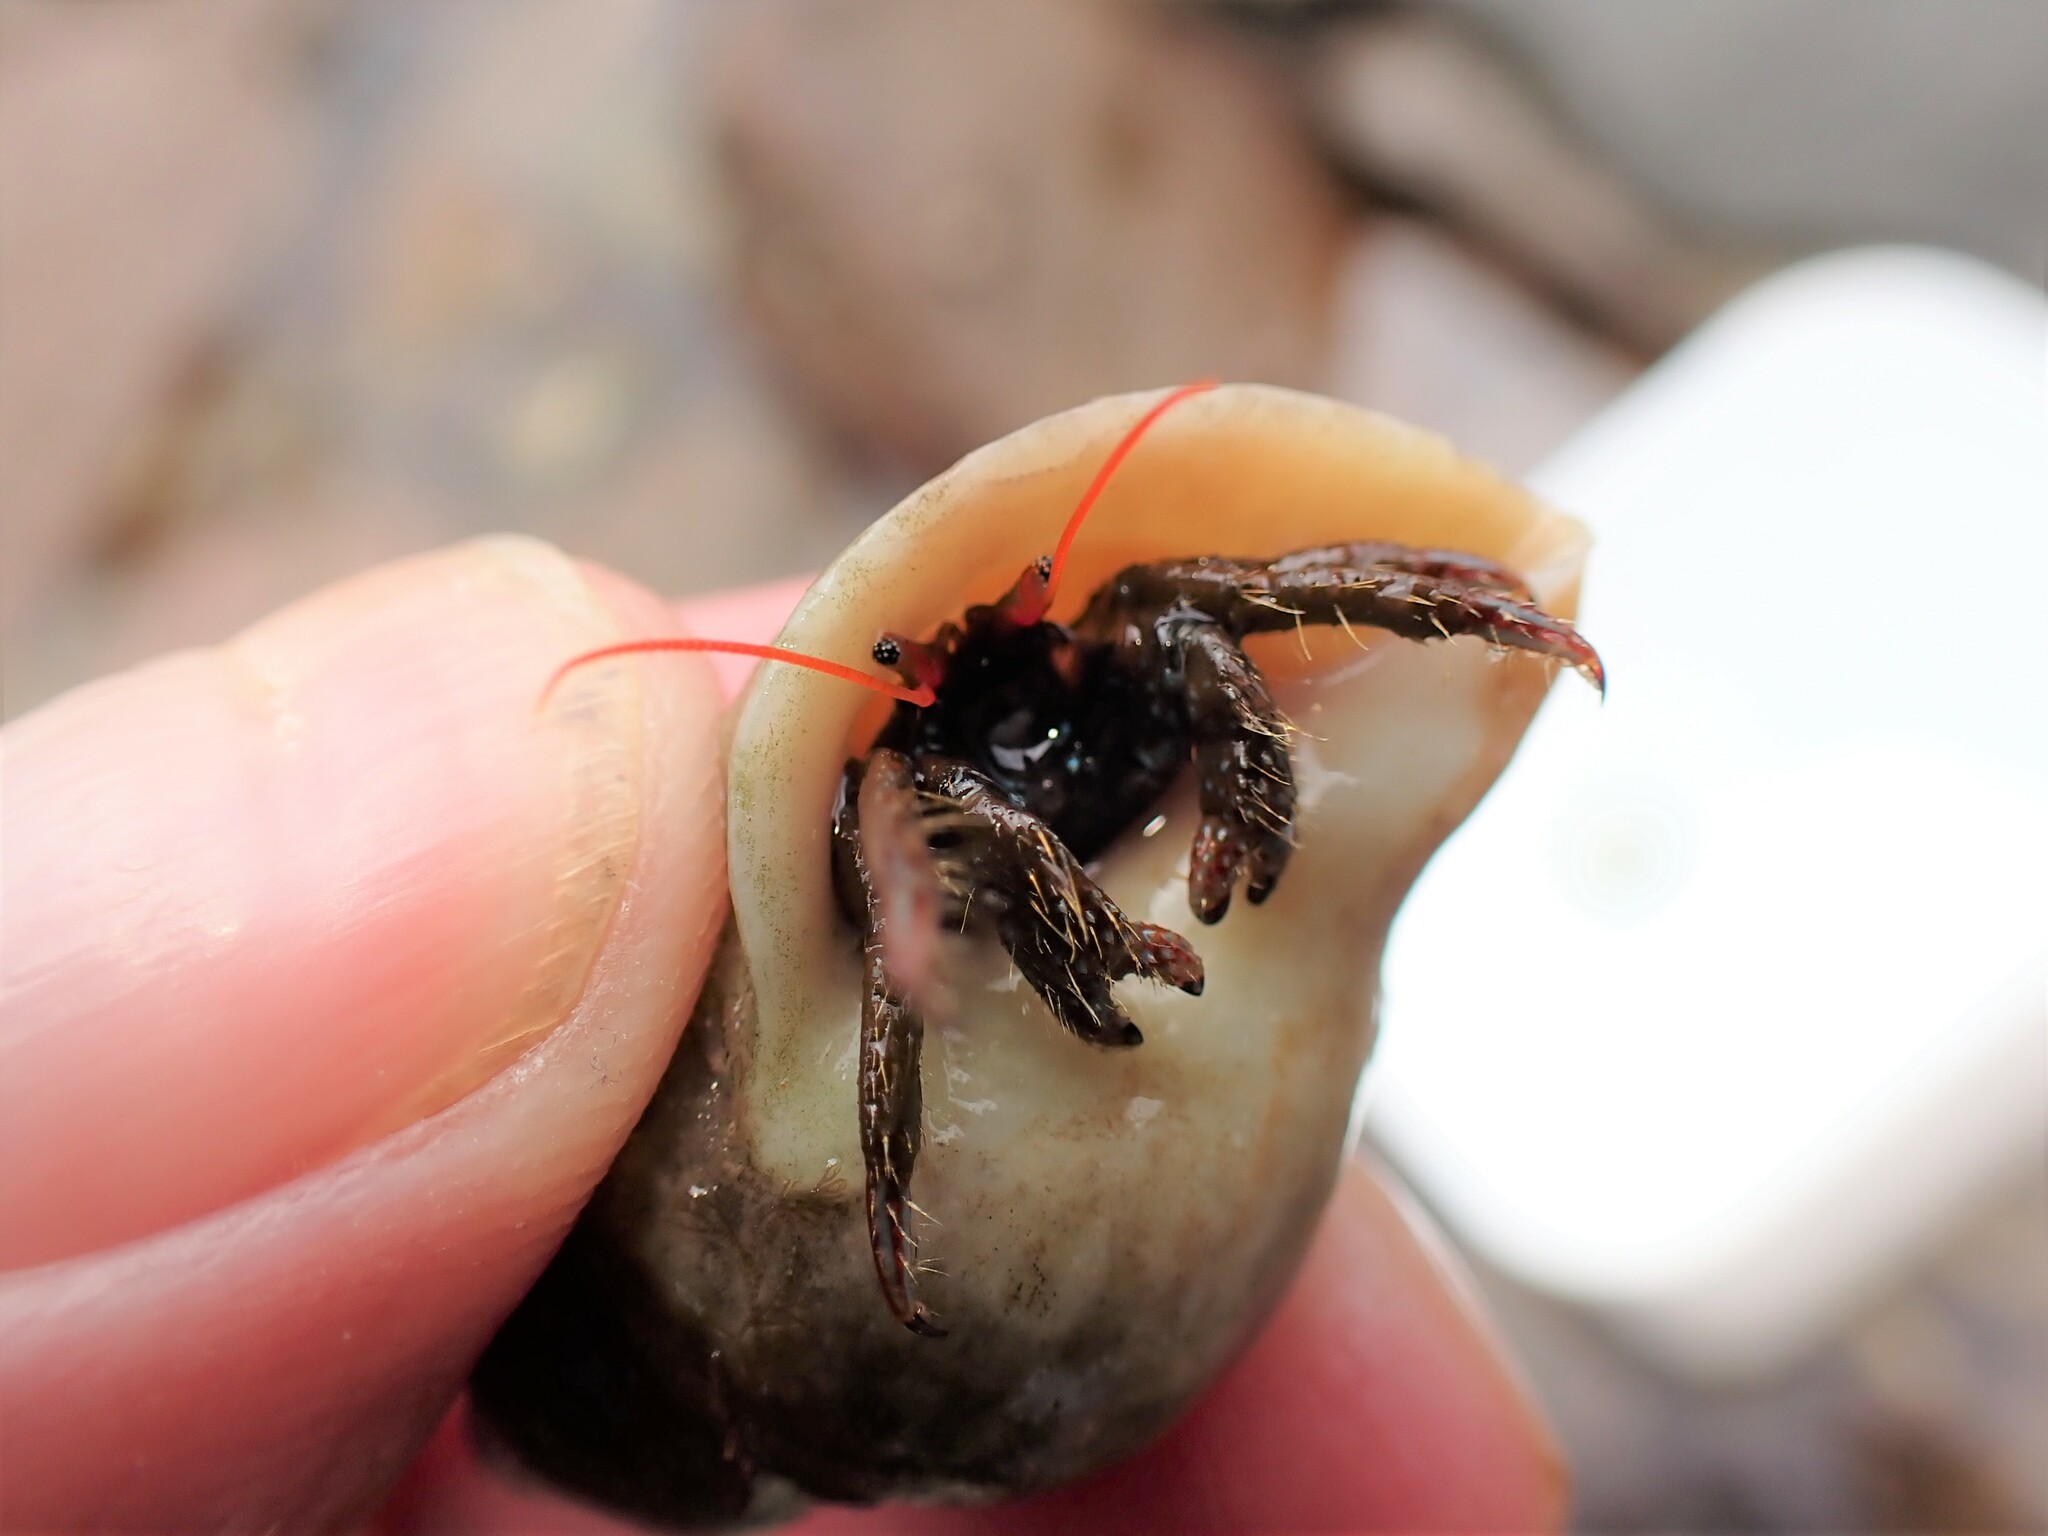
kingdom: Animalia
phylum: Arthropoda
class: Malacostraca
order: Decapoda
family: Diogenidae
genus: Clibanarius
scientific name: Clibanarius erythropus
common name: Hermit crab
